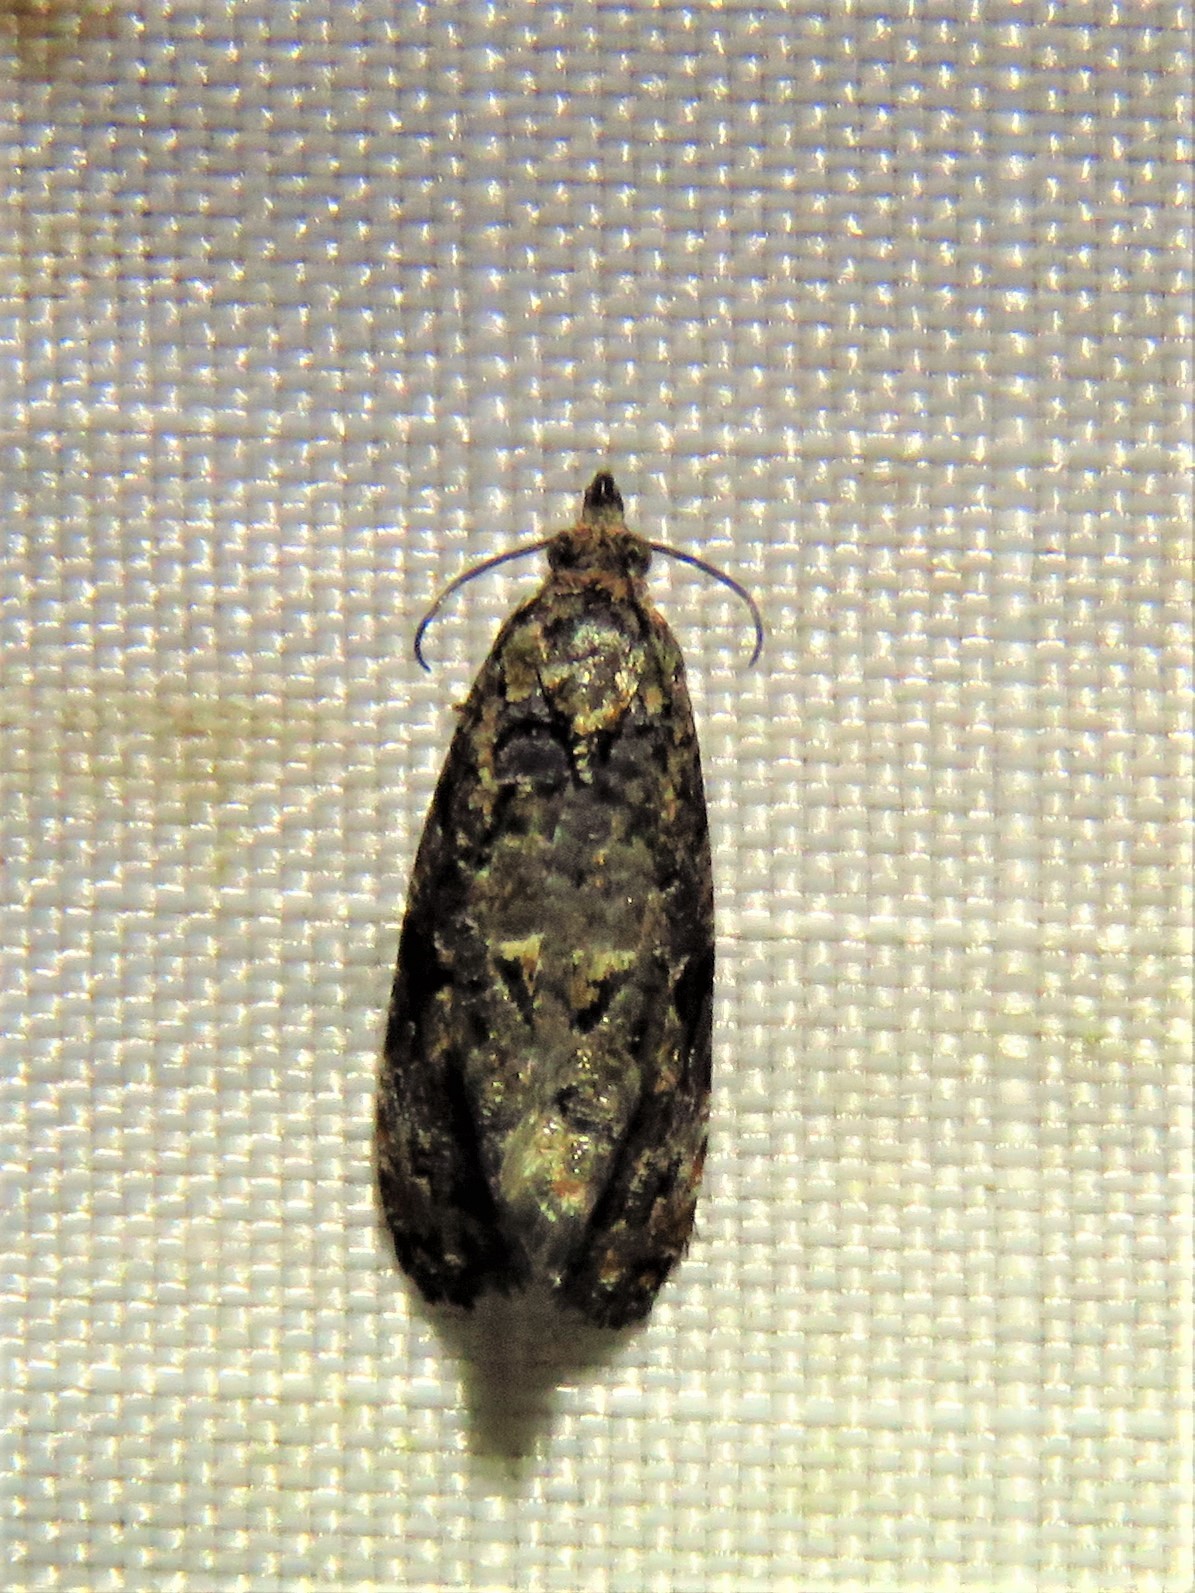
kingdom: Animalia
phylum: Arthropoda
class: Insecta
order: Lepidoptera
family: Tortricidae
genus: Endothenia
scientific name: Endothenia hebesana
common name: Verbena bud moth
